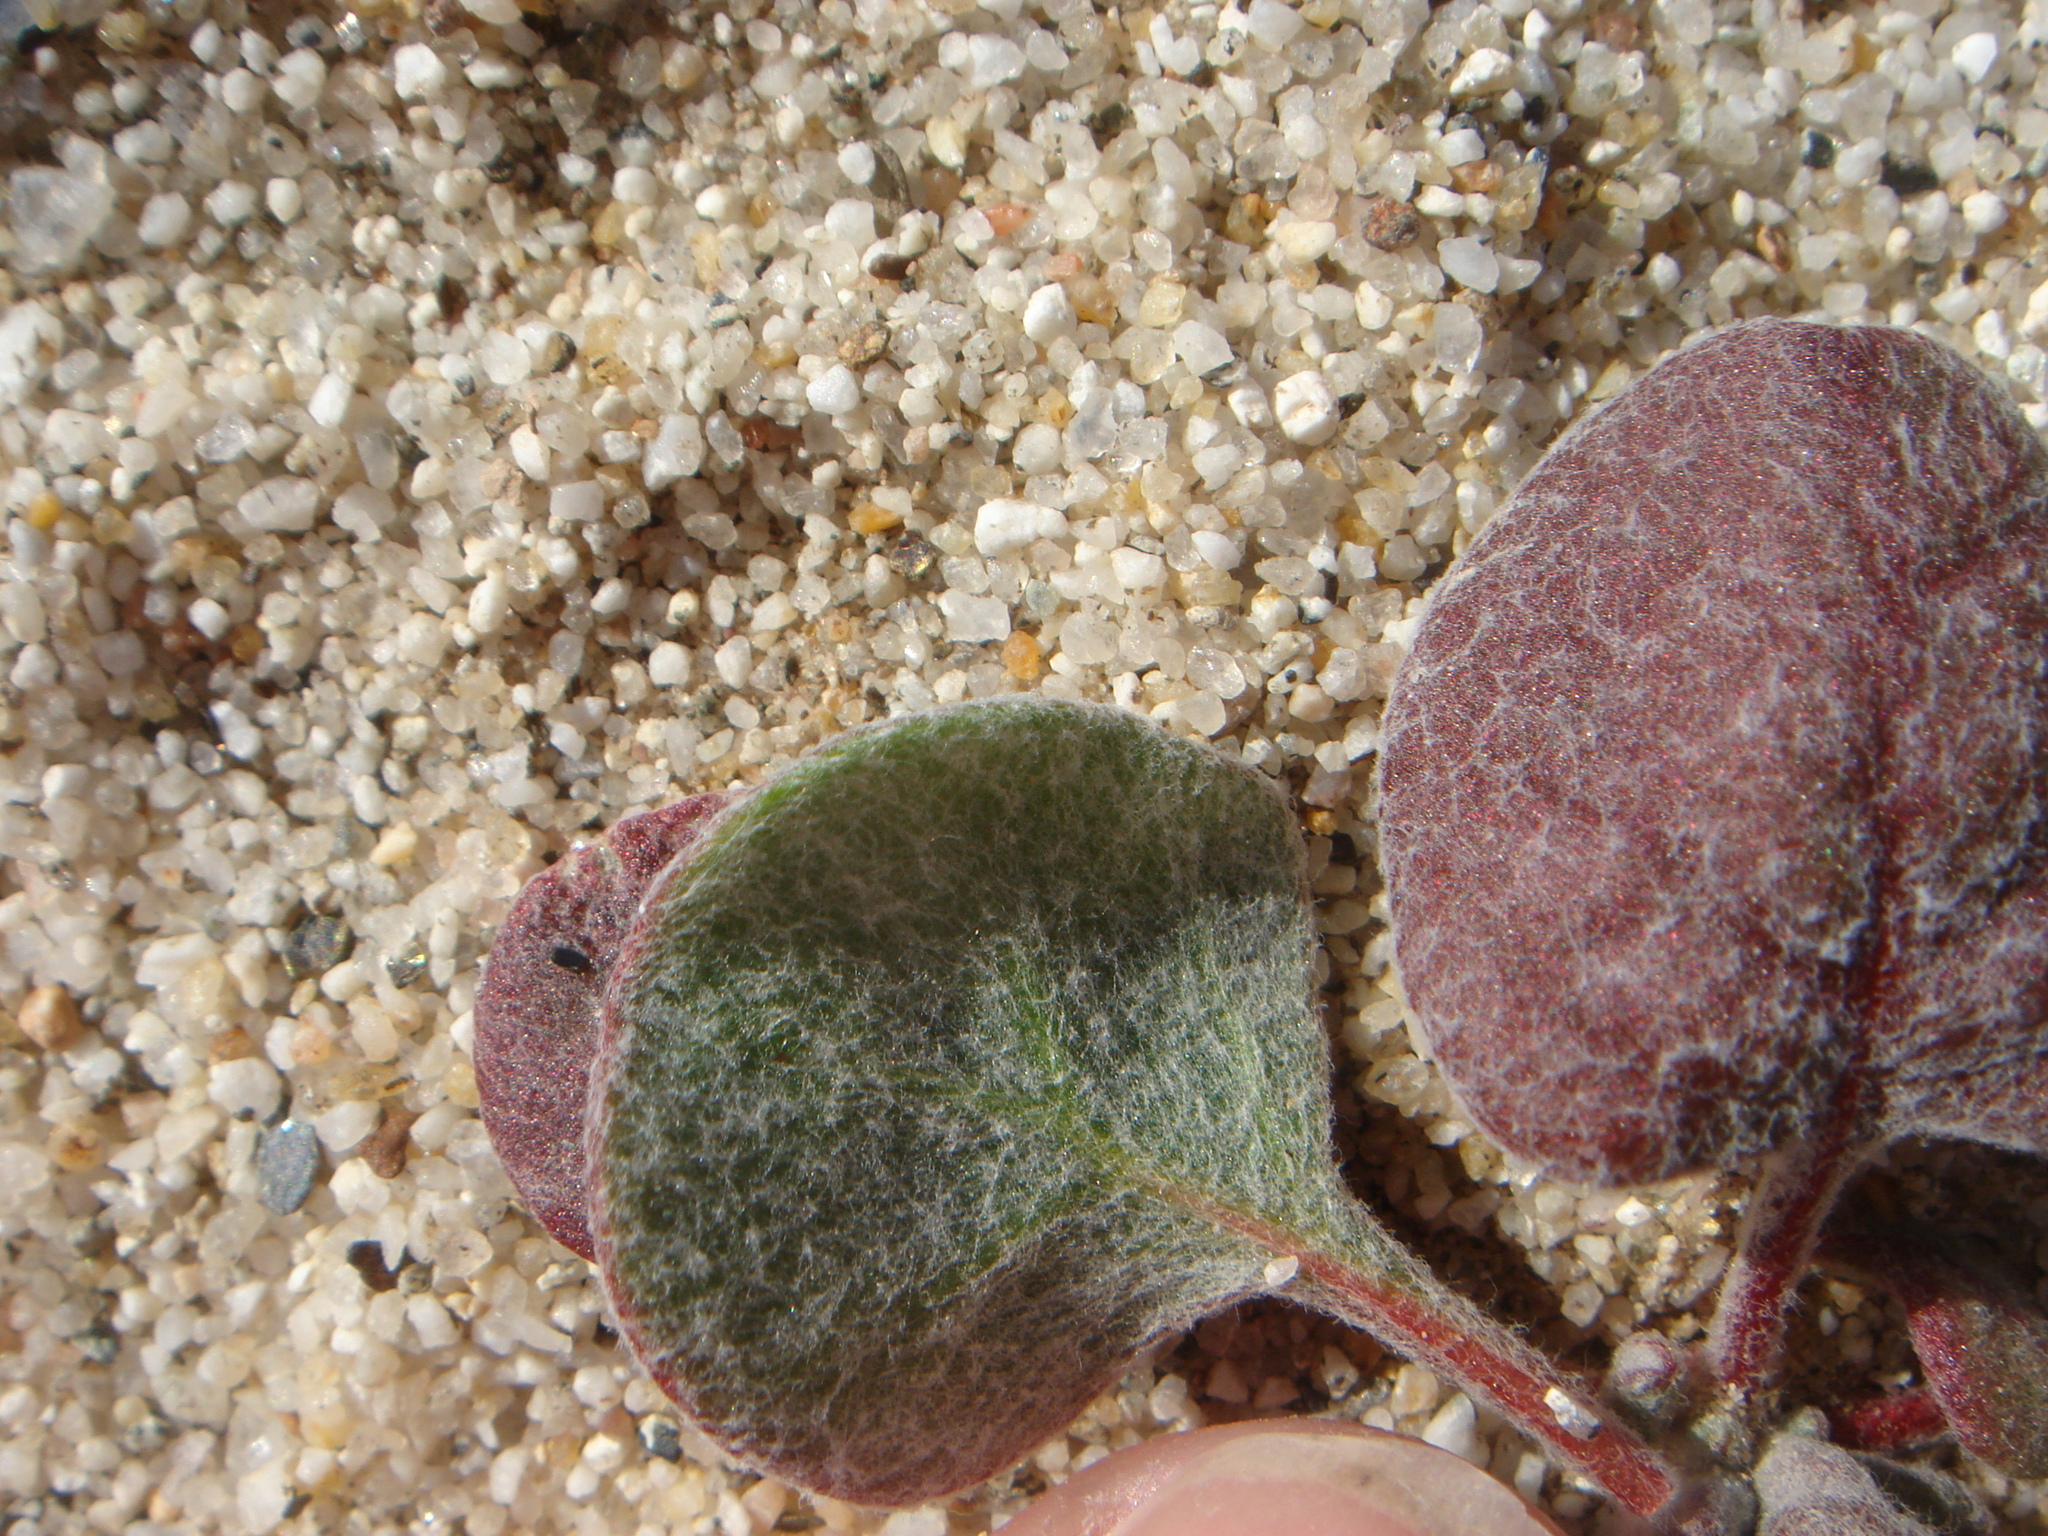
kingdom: Plantae
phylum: Tracheophyta
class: Magnoliopsida
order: Caryophyllales
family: Polygonaceae
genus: Chorizanthe
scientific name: Chorizanthe rigida
